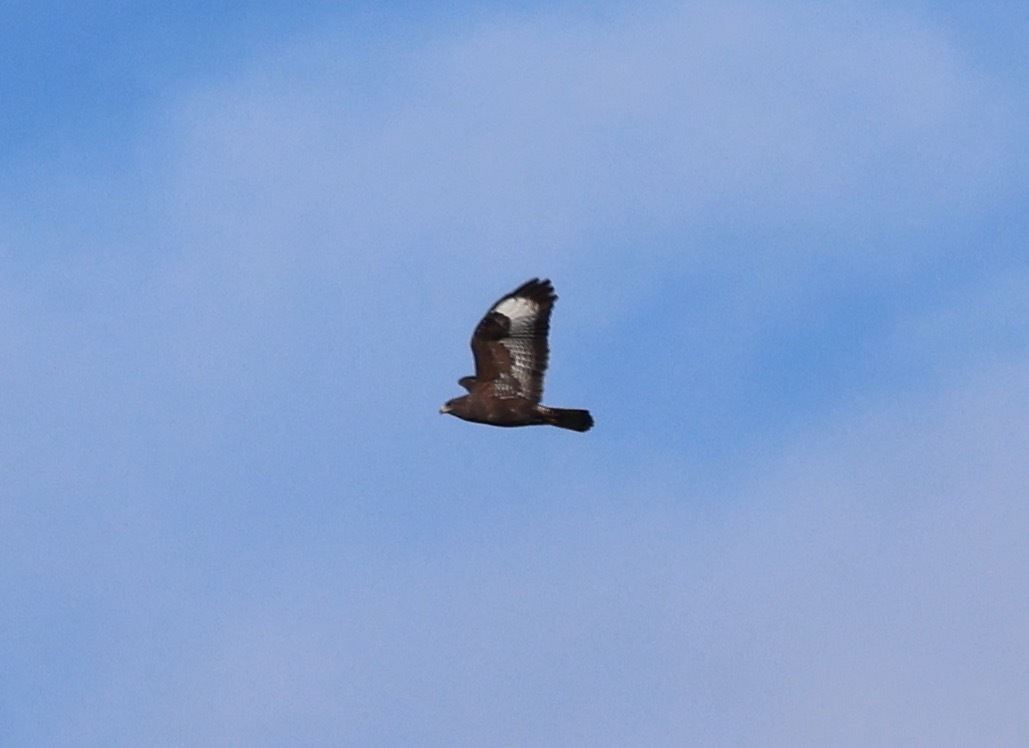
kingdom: Animalia
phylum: Chordata
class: Aves
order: Accipitriformes
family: Accipitridae
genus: Buteo
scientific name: Buteo buteo
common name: Common buzzard
